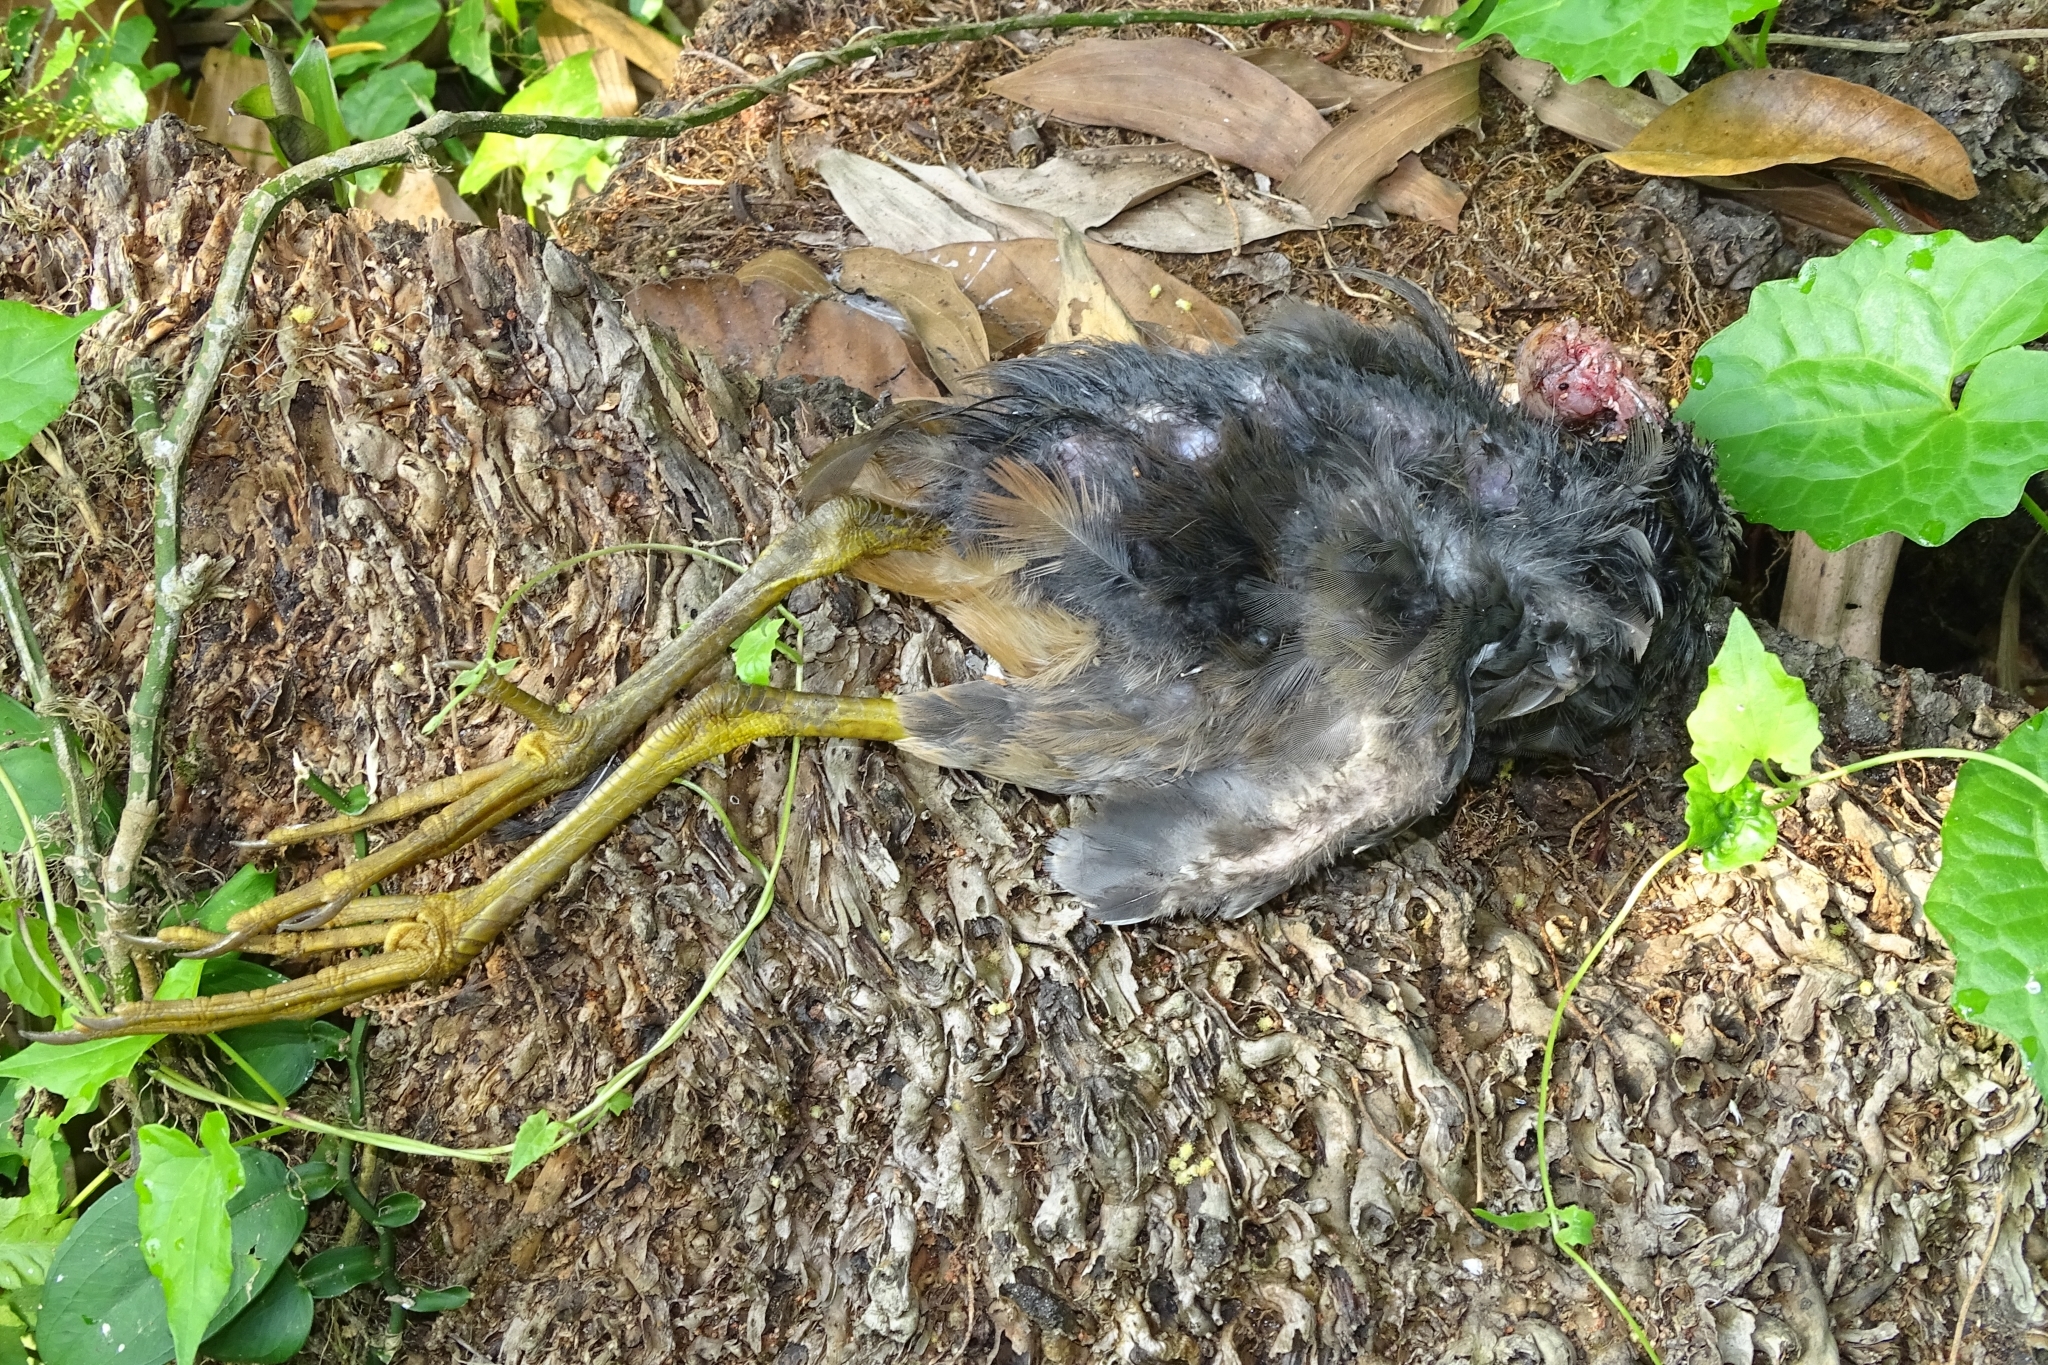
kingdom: Animalia
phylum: Chordata
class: Aves
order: Gruiformes
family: Rallidae
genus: Amaurornis
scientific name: Amaurornis phoenicurus
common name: White-breasted waterhen
